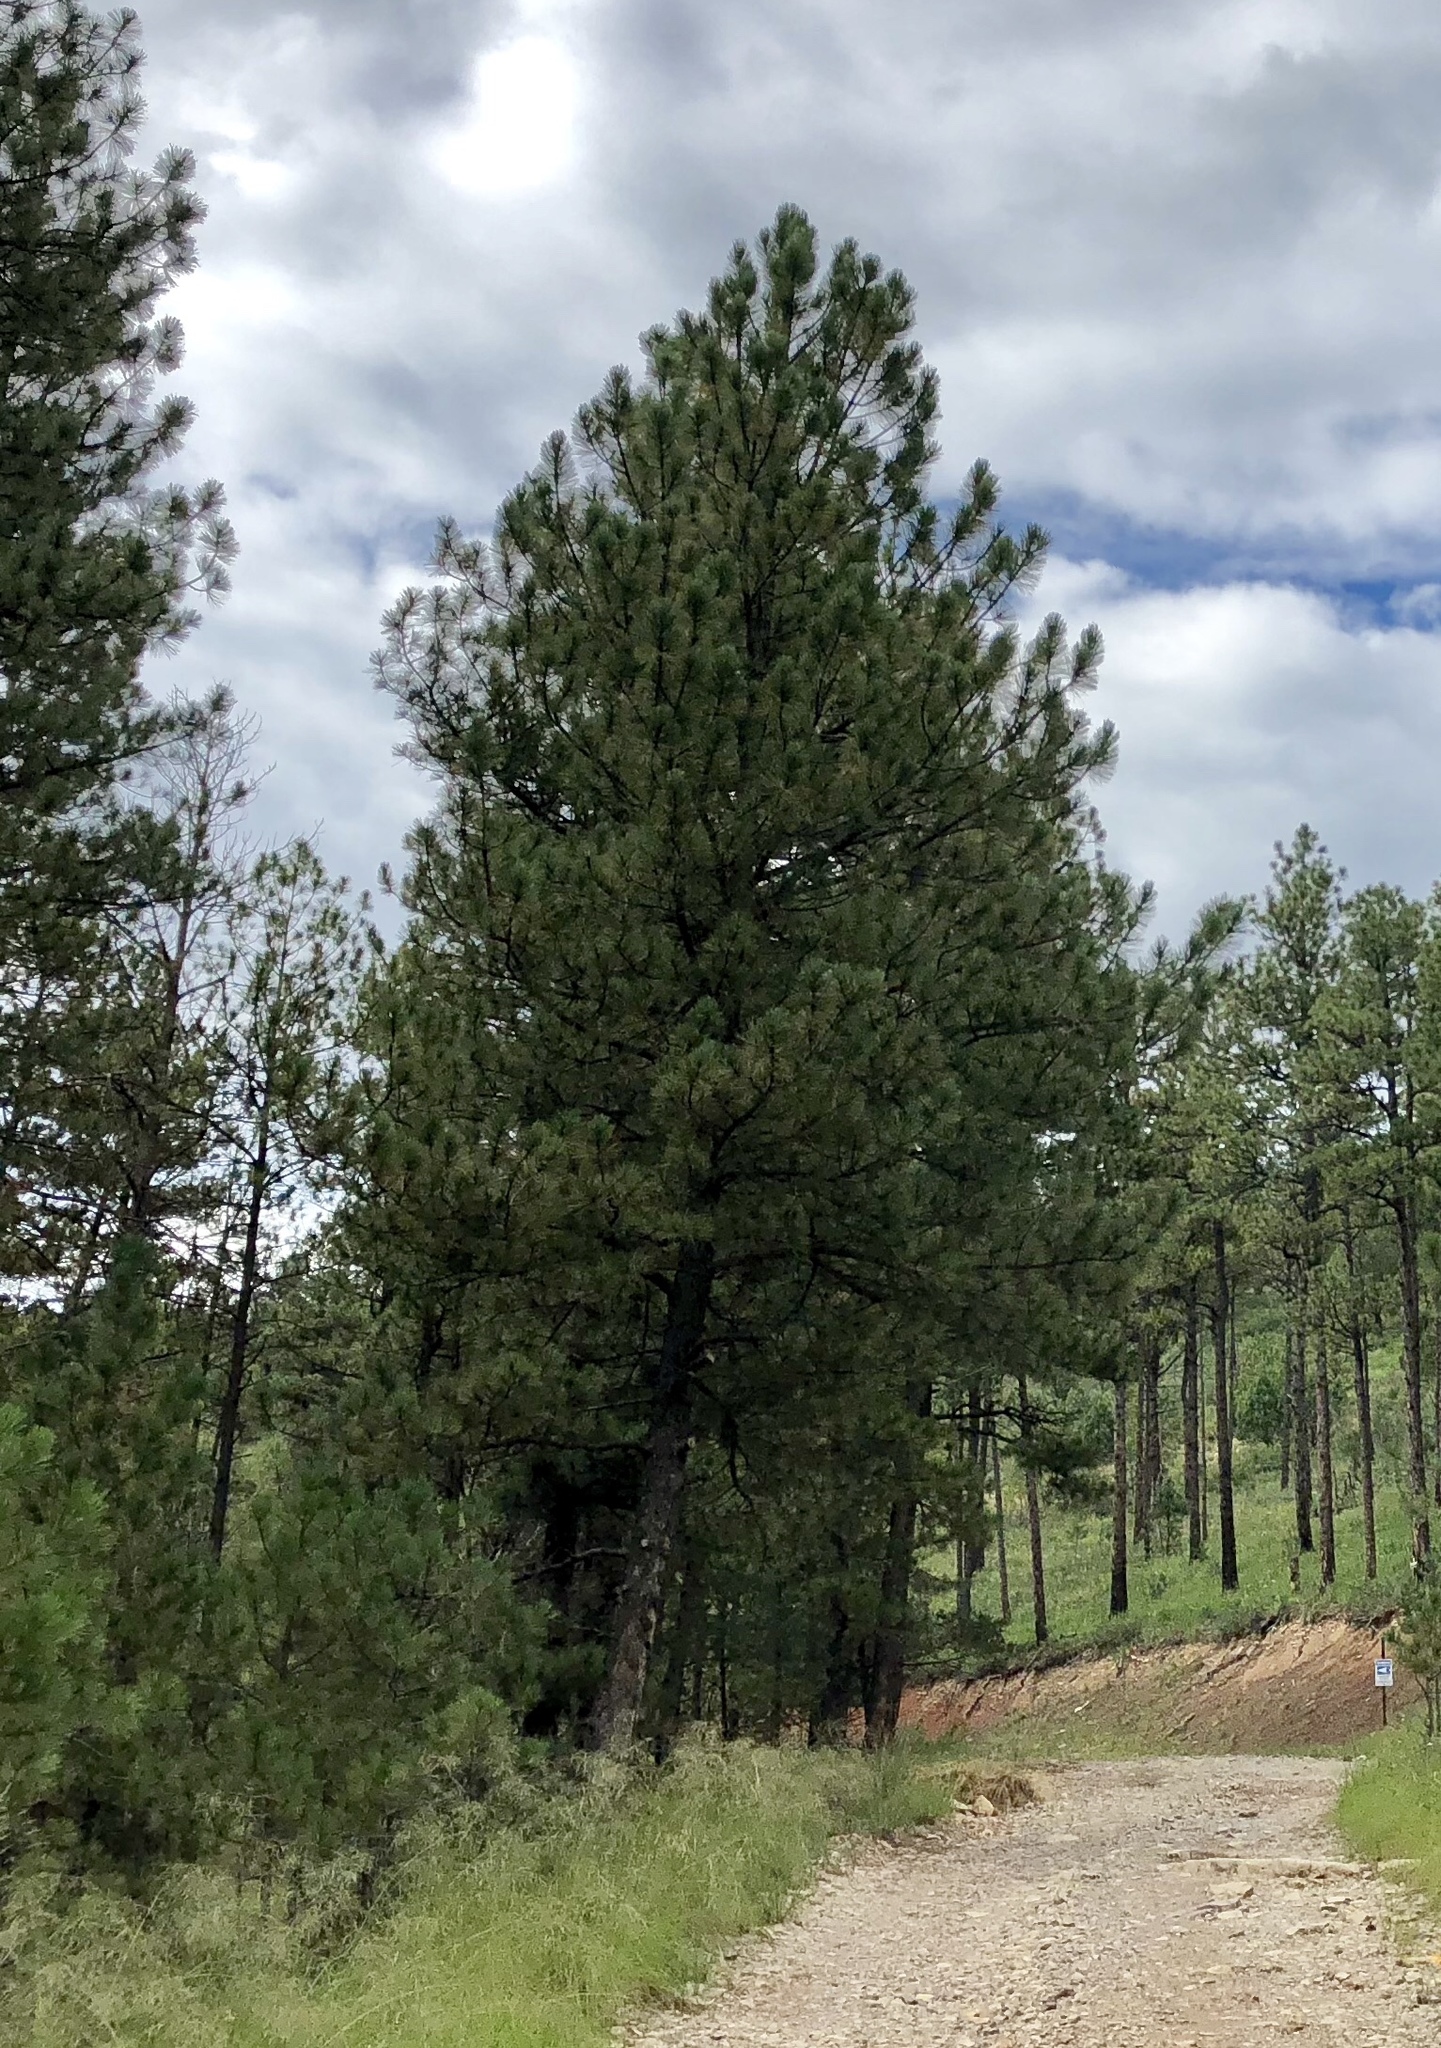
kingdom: Plantae
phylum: Tracheophyta
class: Pinopsida
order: Pinales
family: Pinaceae
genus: Pinus
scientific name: Pinus ponderosa
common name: Western yellow-pine
